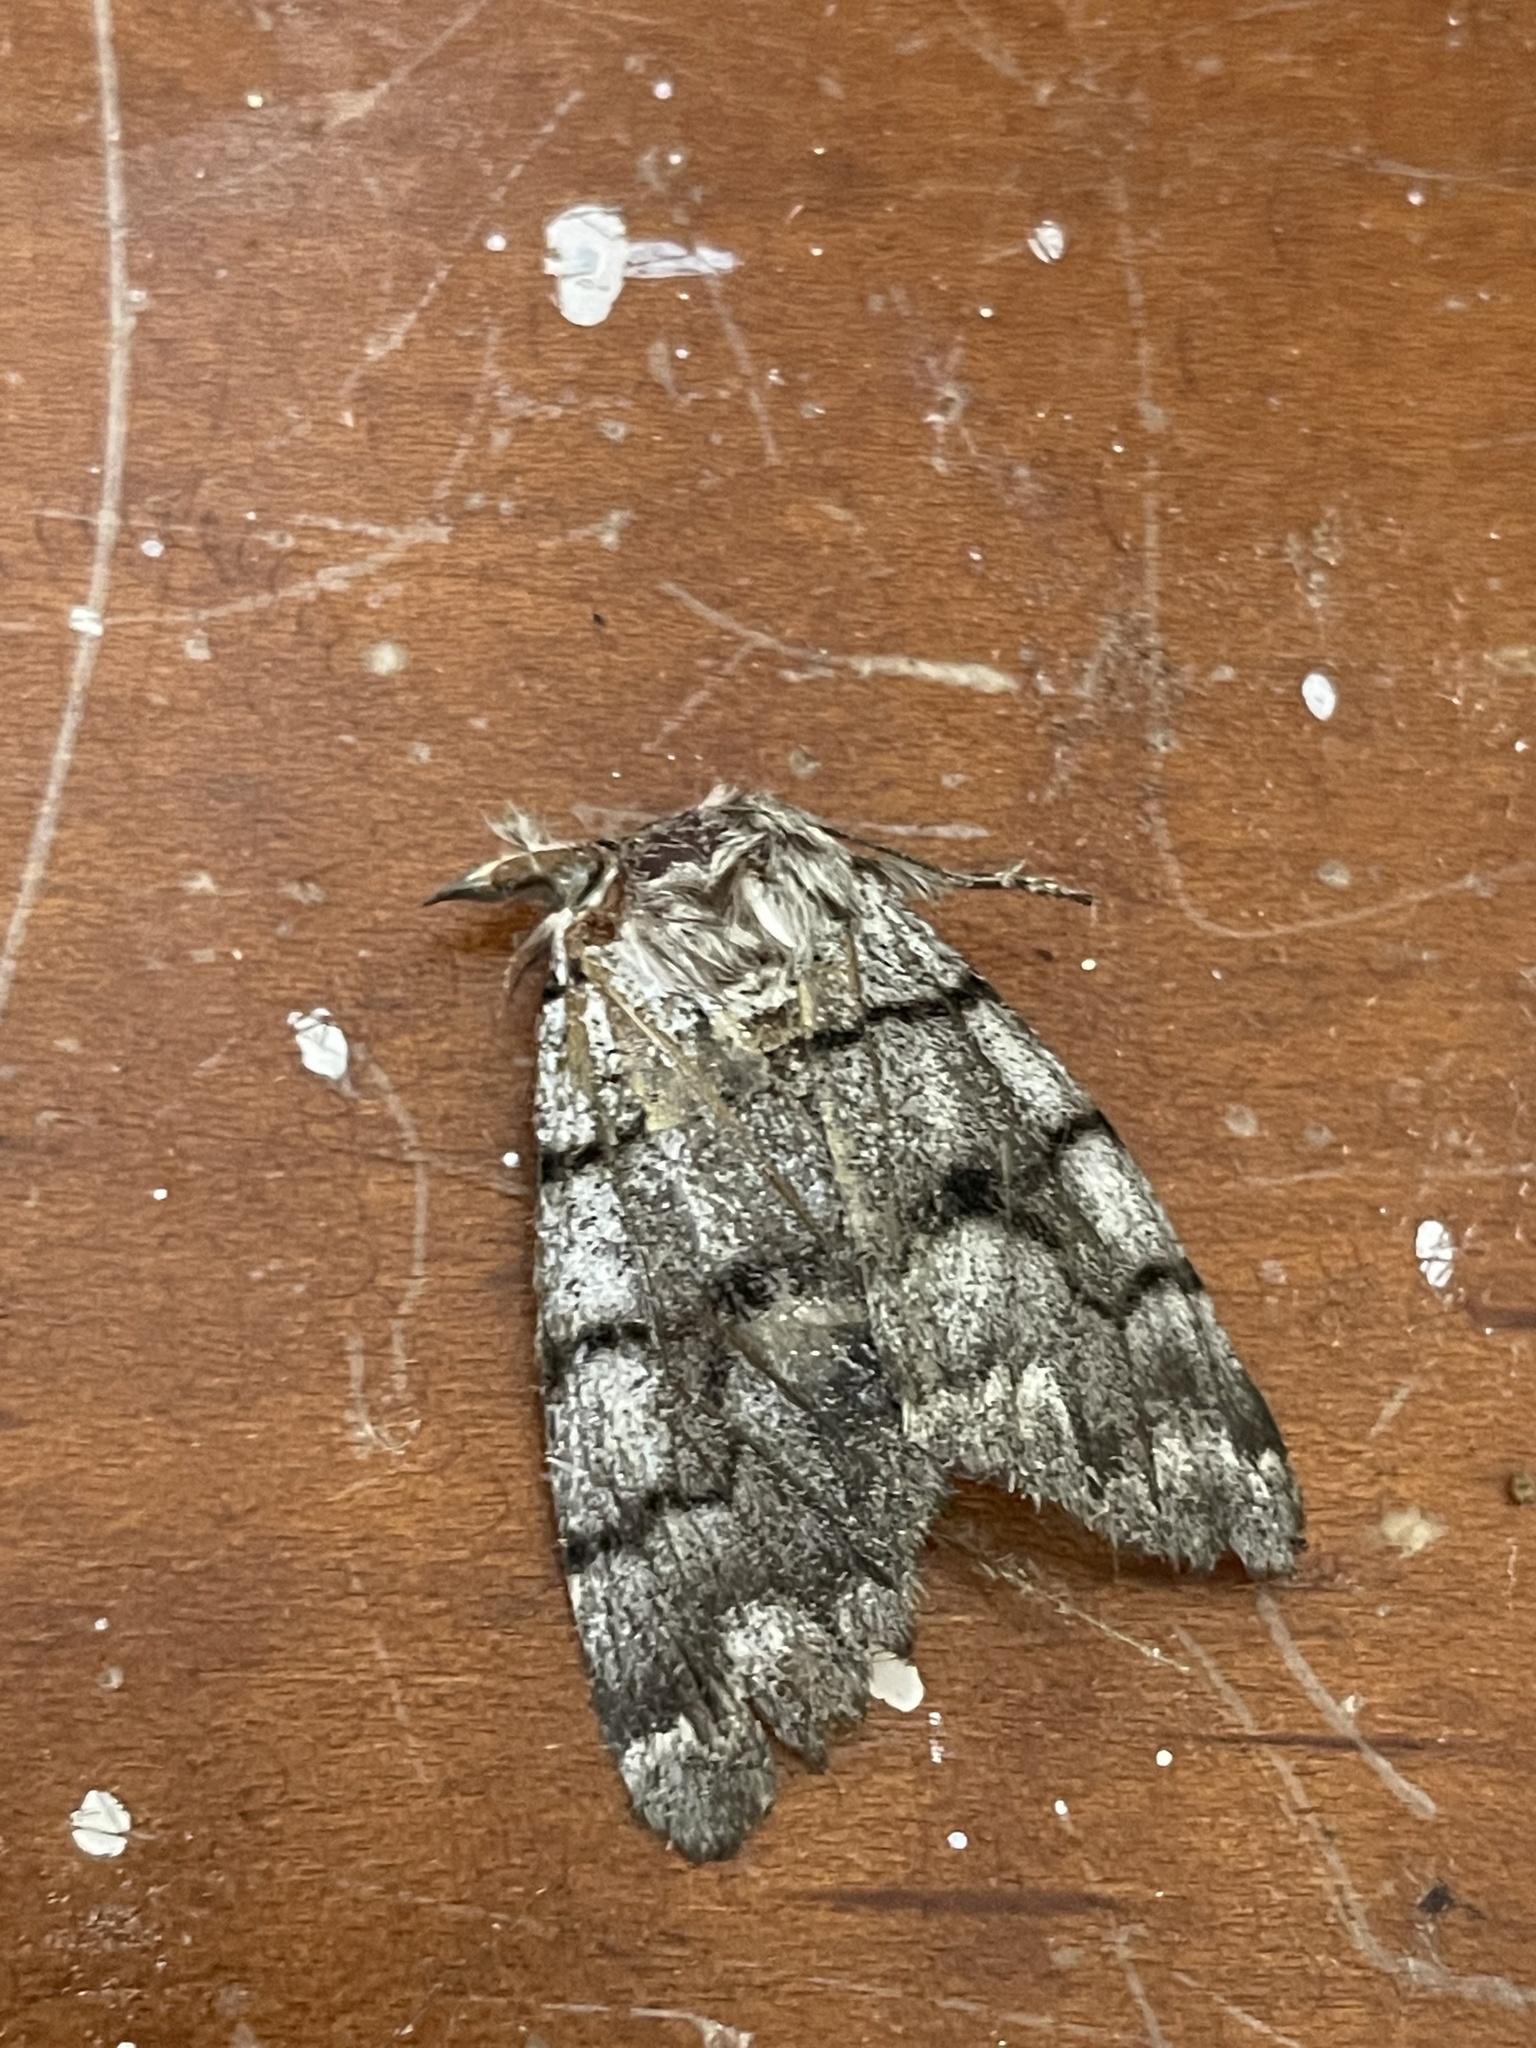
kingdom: Animalia
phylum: Arthropoda
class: Insecta
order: Lepidoptera
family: Noctuidae
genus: Panthea
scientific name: Panthea furcilla
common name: Eastern panthea moth
